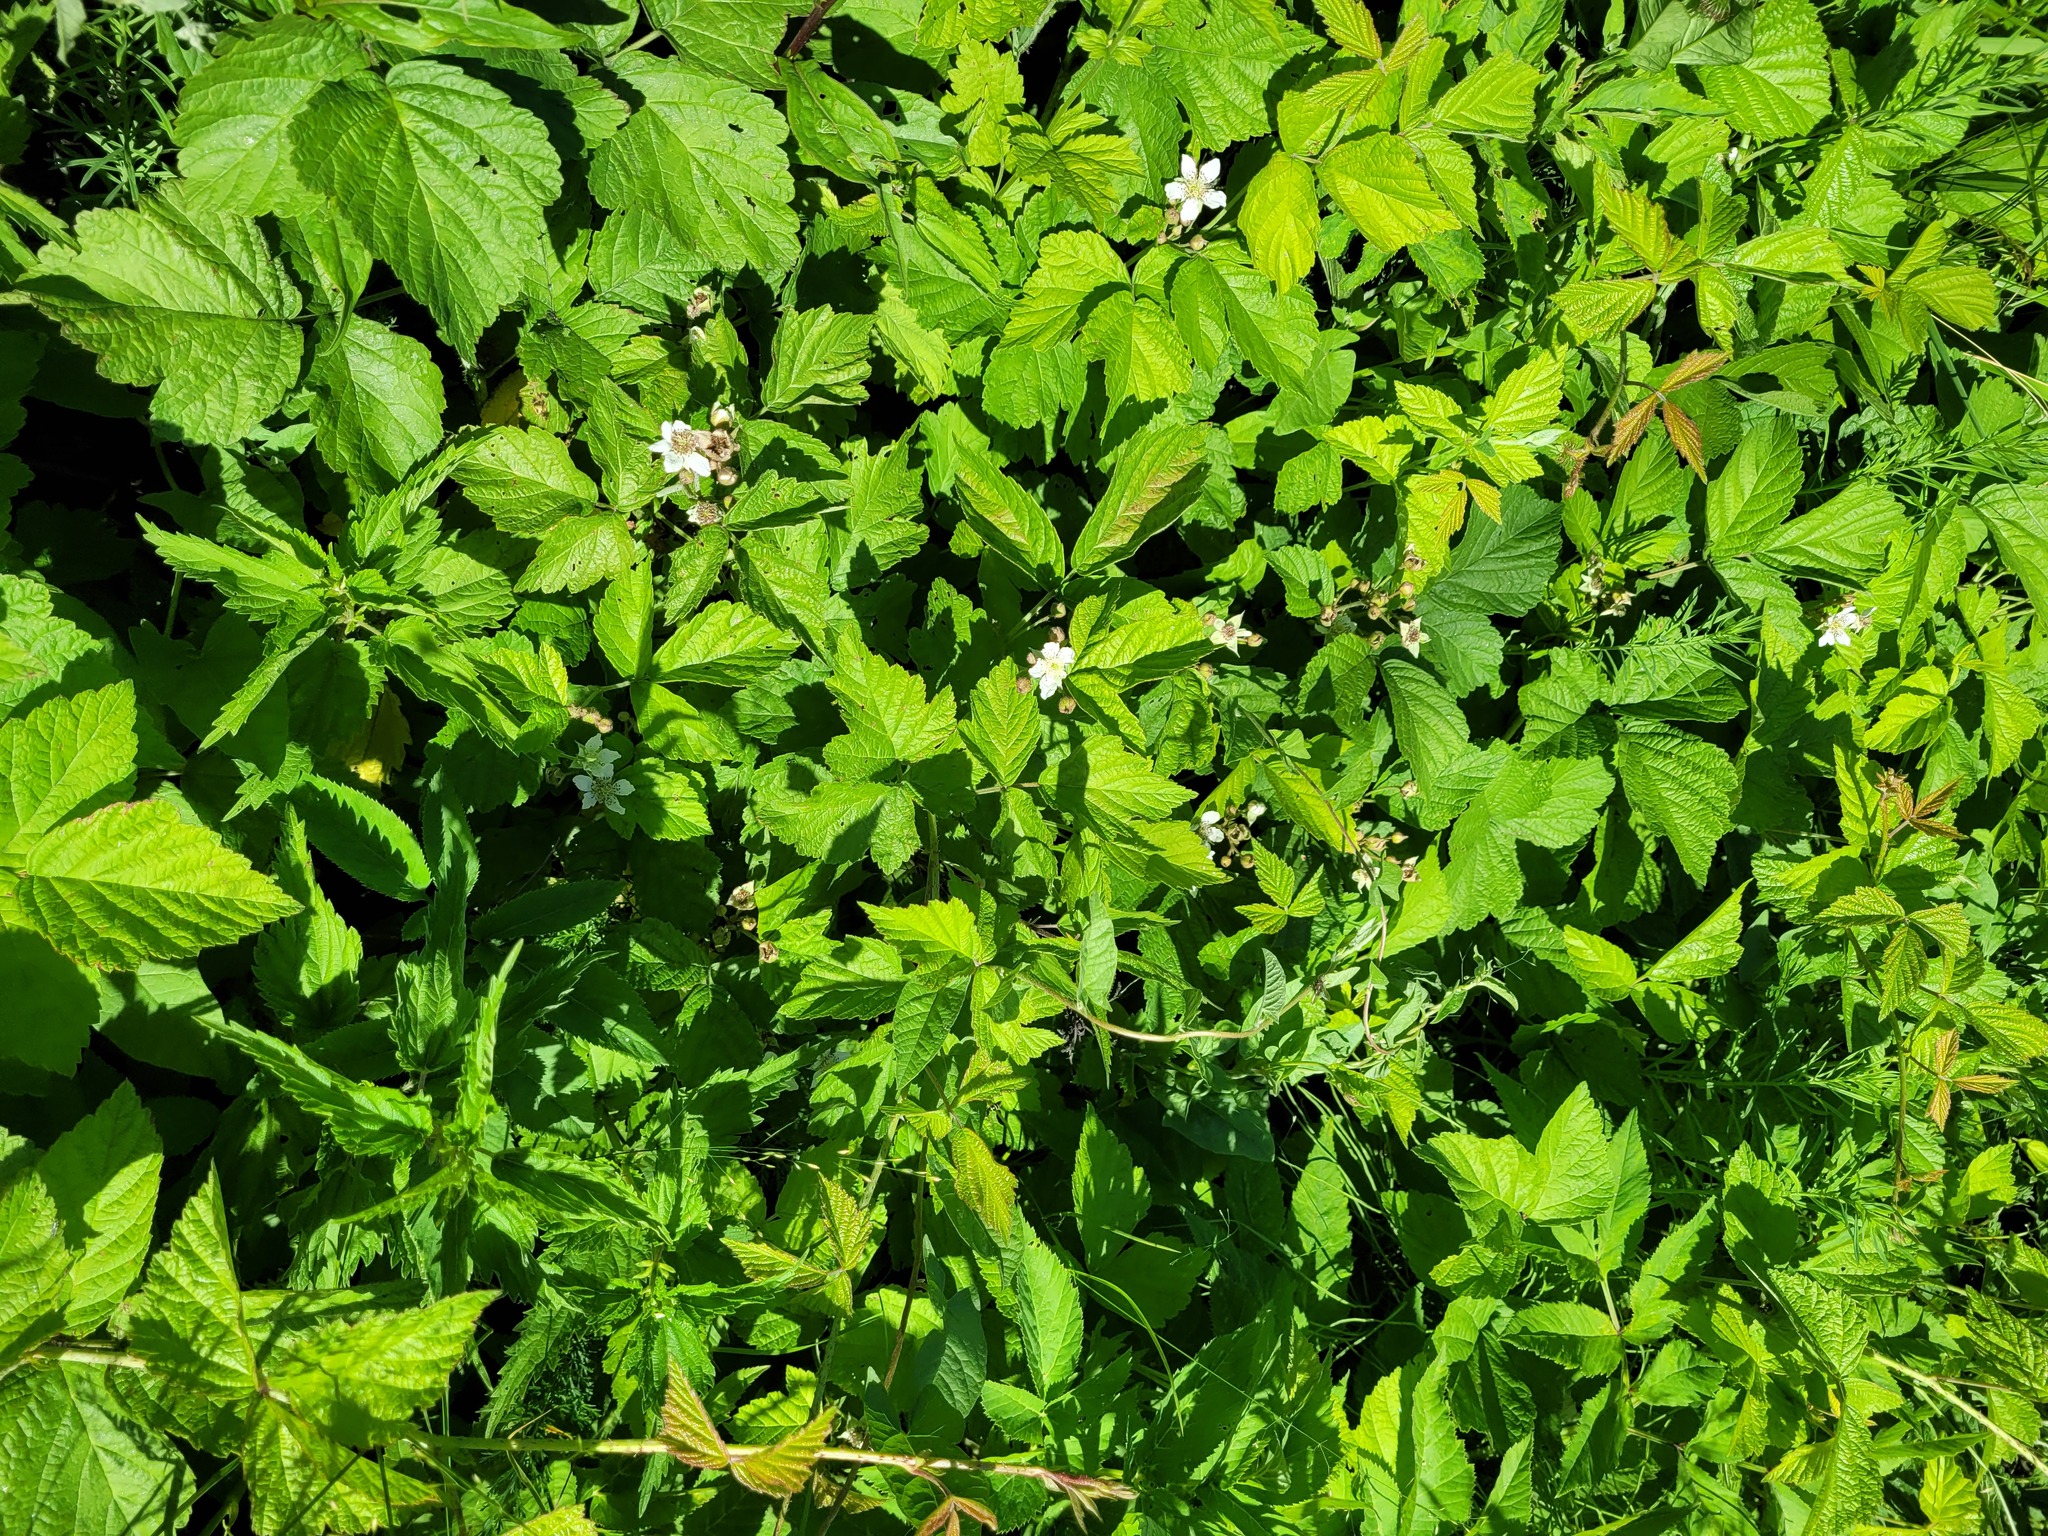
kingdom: Plantae
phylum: Tracheophyta
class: Magnoliopsida
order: Rosales
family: Rosaceae
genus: Rubus
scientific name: Rubus caesius
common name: Dewberry
